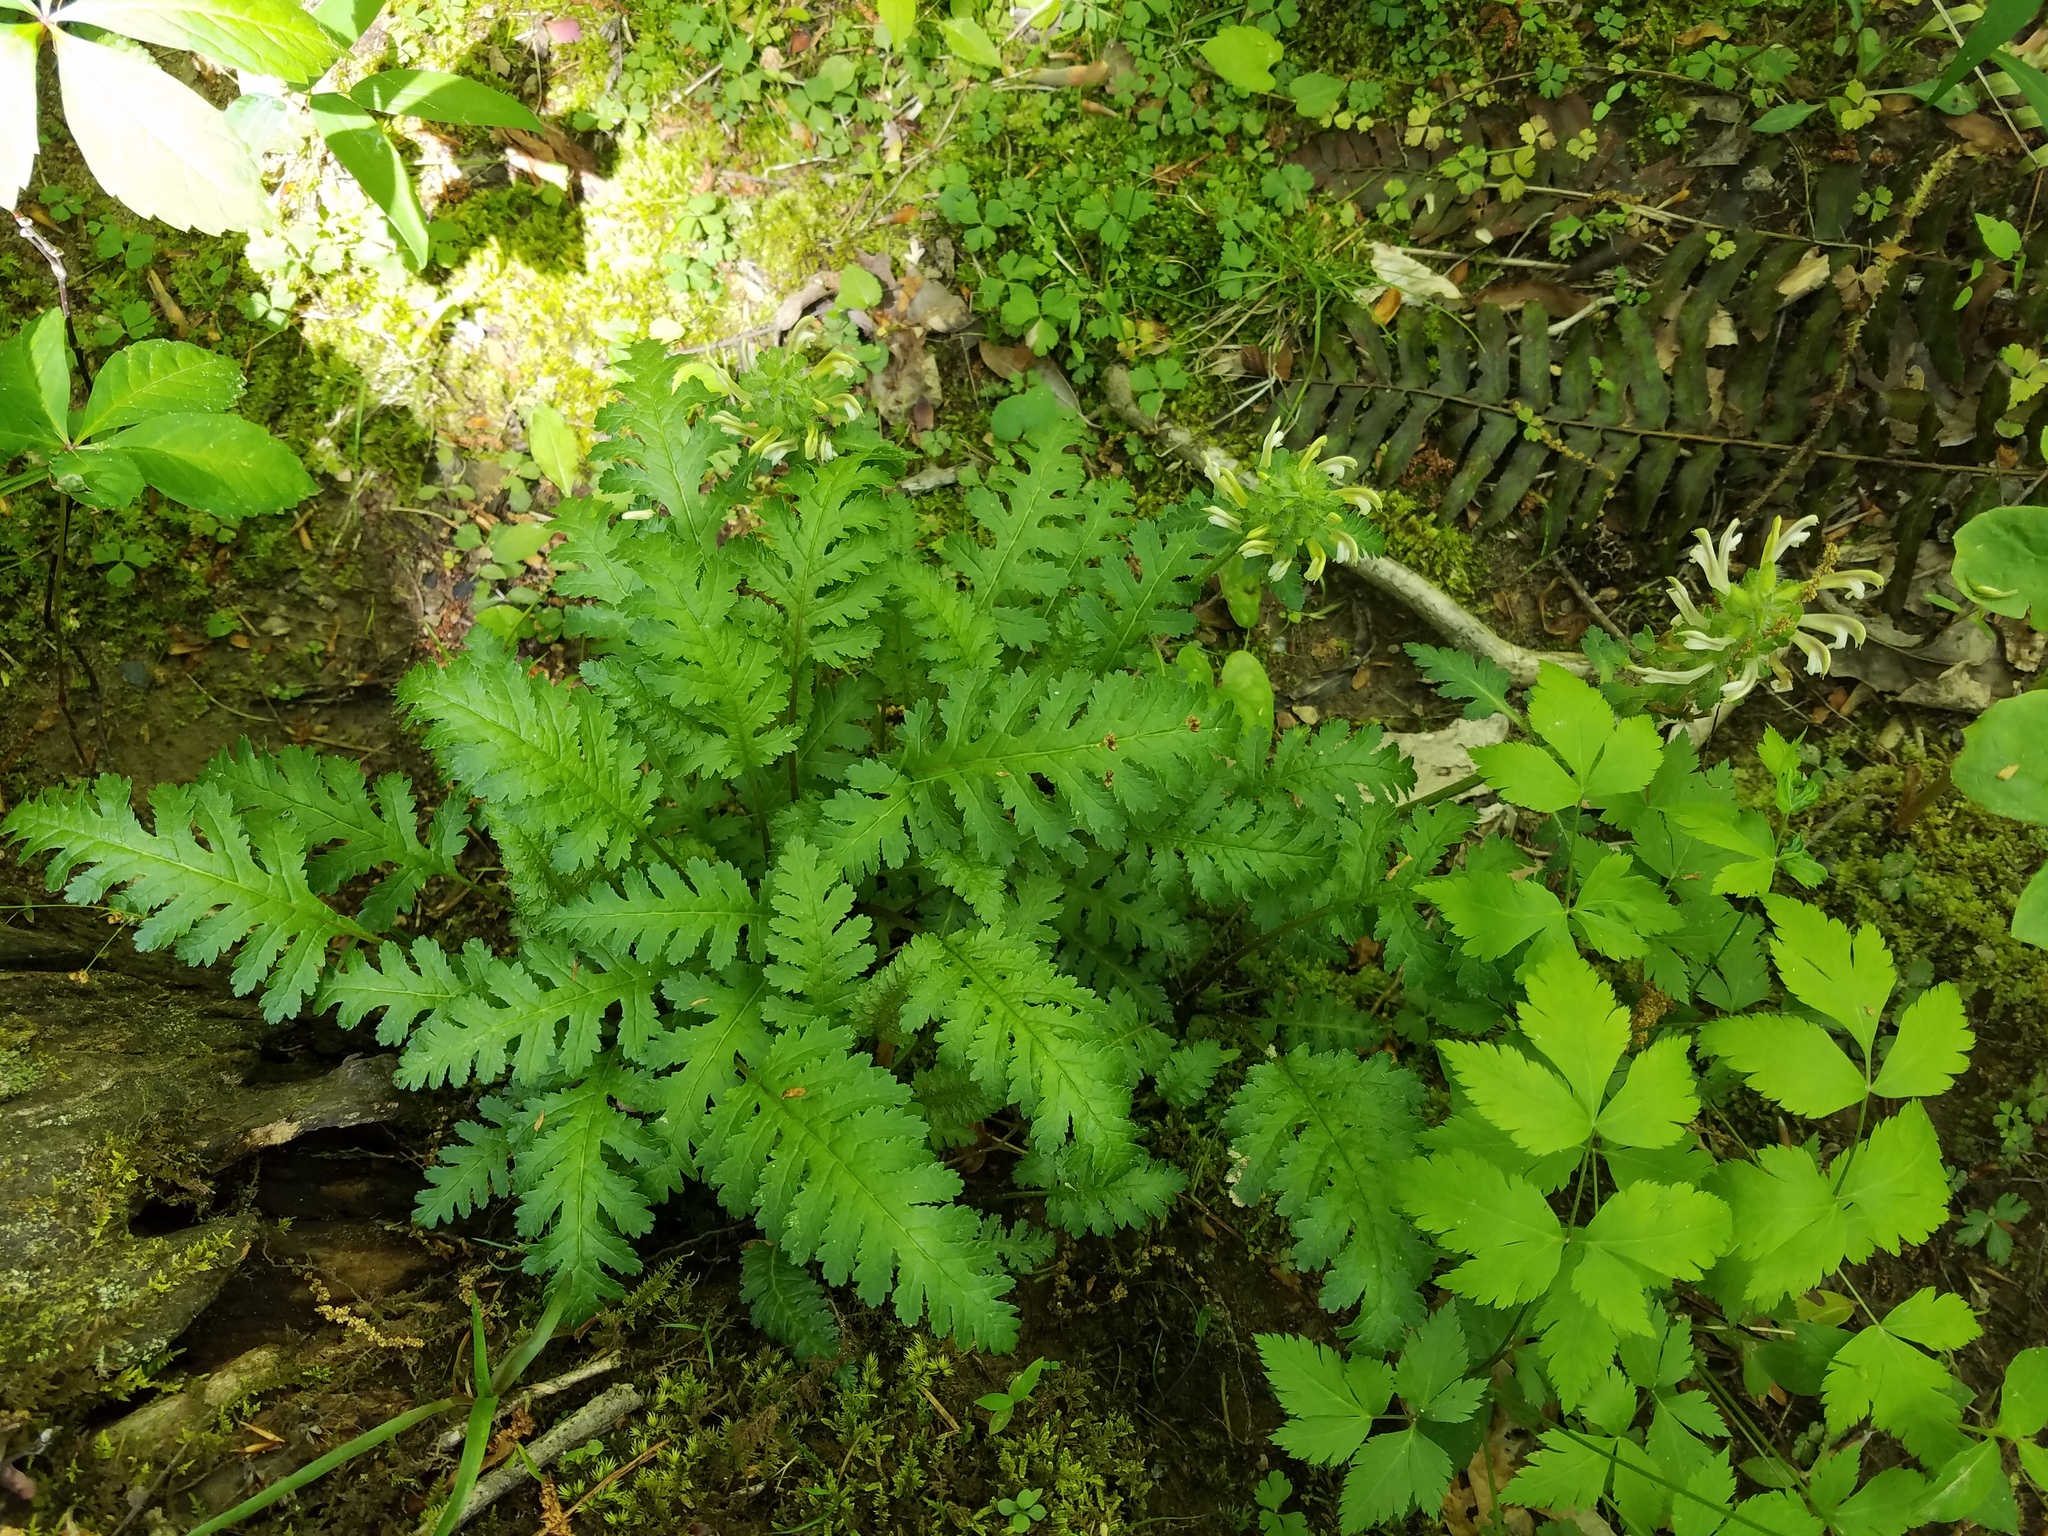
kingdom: Plantae
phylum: Tracheophyta
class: Magnoliopsida
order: Lamiales
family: Orobanchaceae
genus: Pedicularis
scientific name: Pedicularis canadensis
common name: Early lousewort
